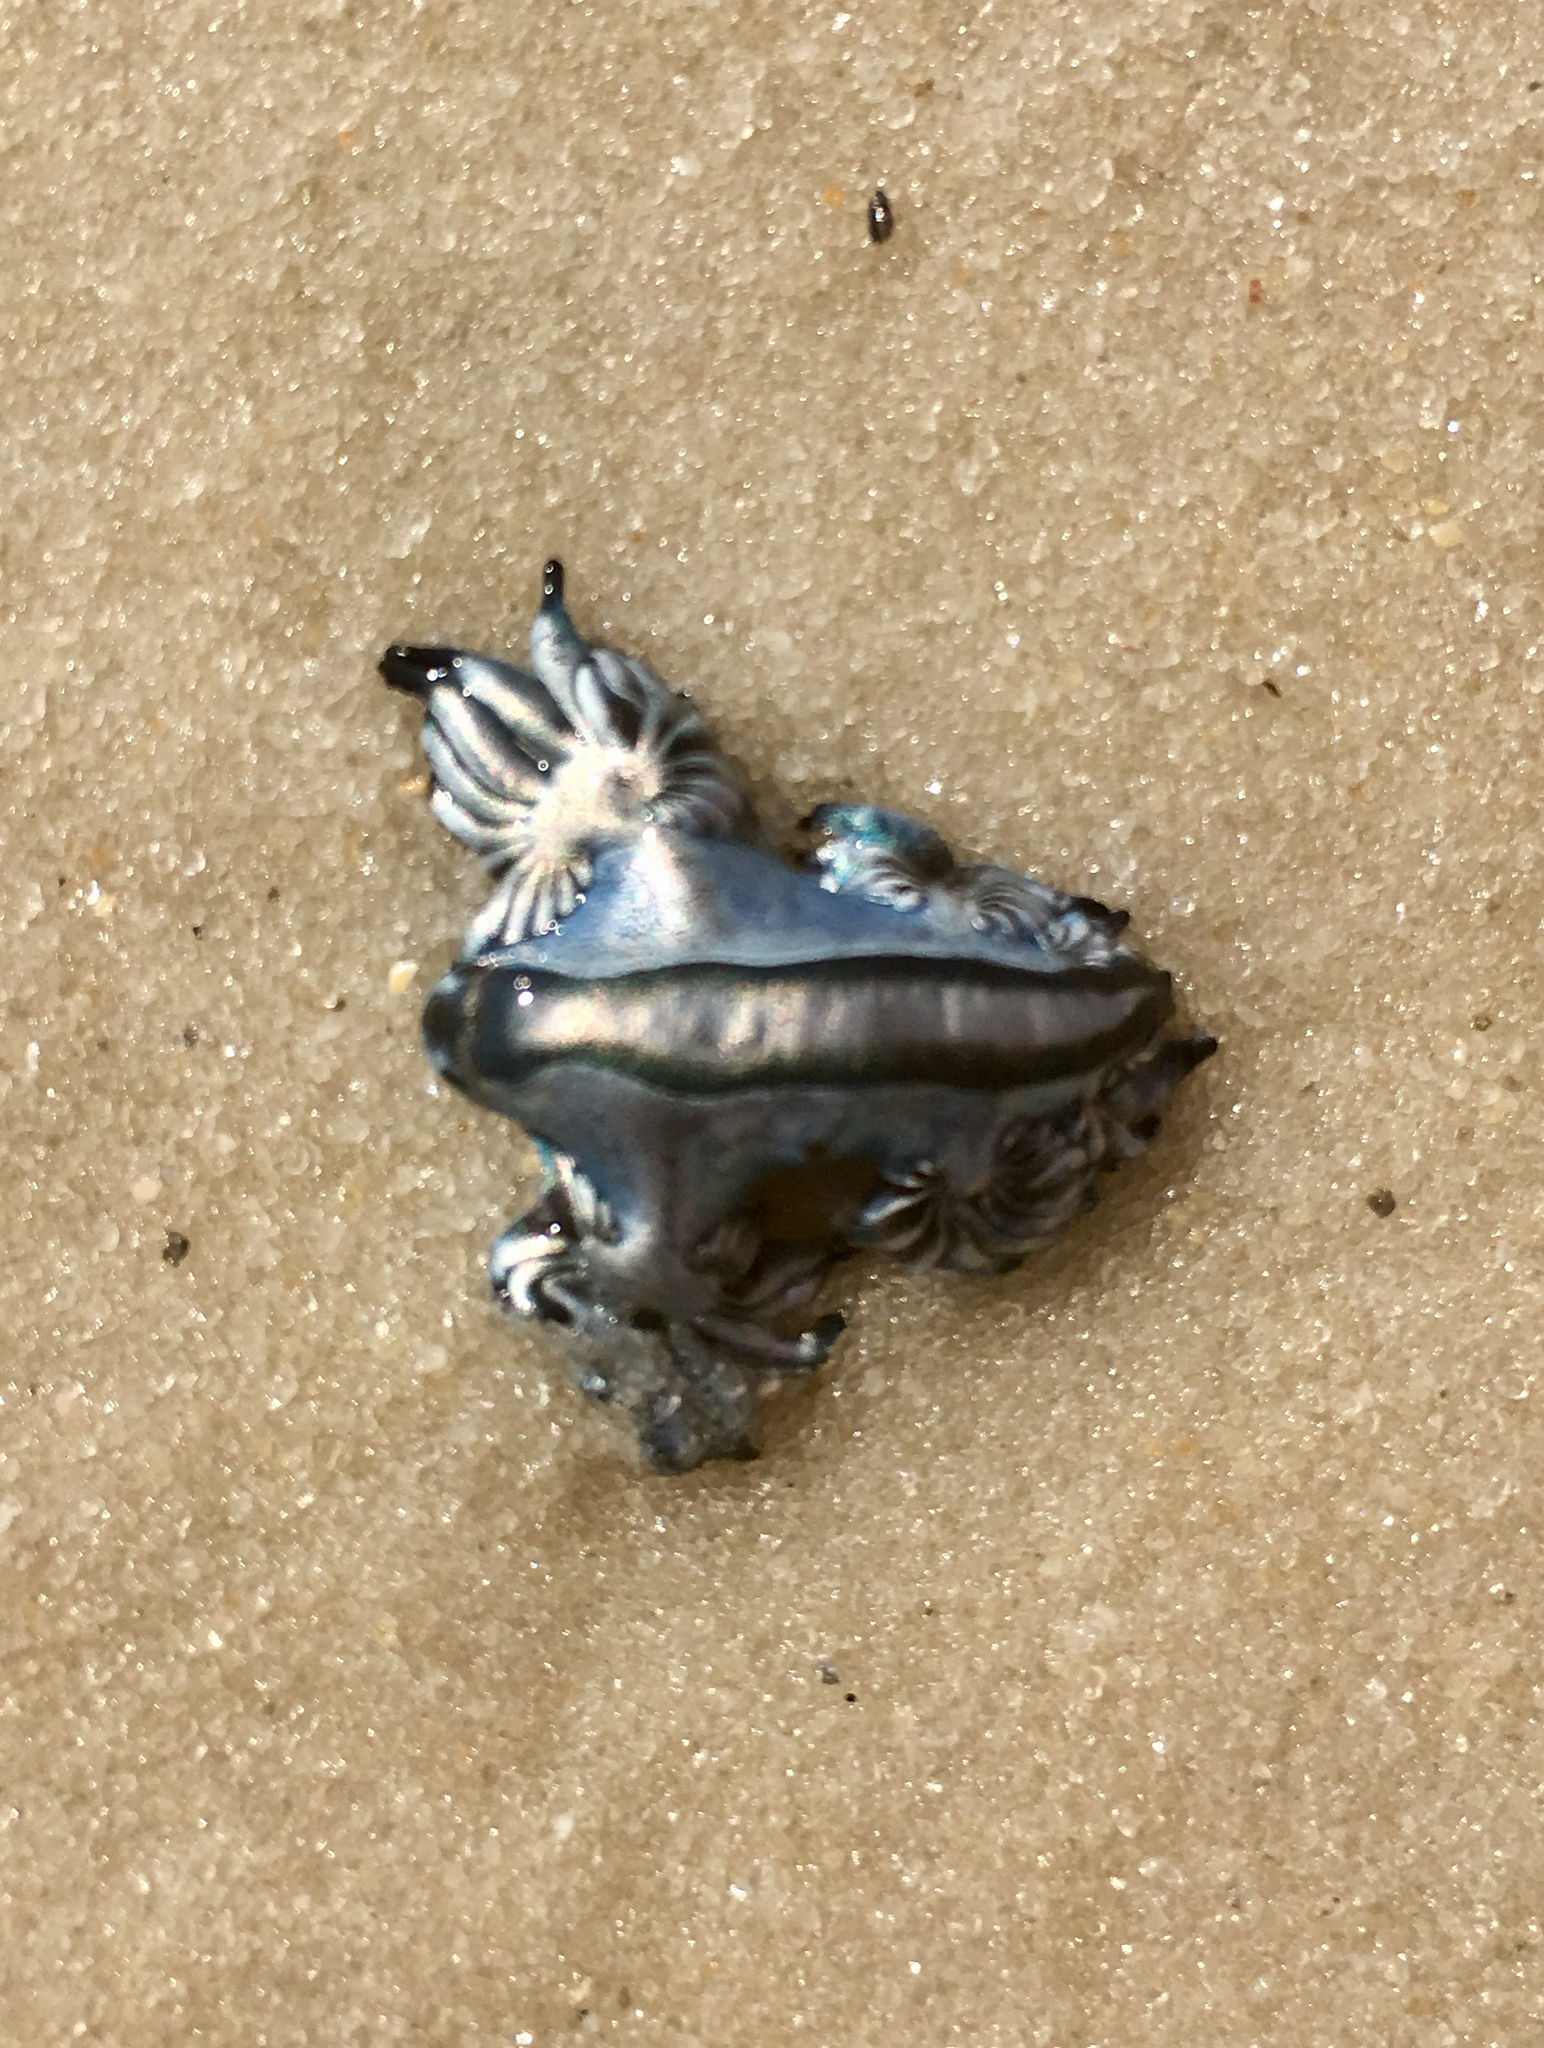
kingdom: Animalia
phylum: Mollusca
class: Gastropoda
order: Nudibranchia
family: Glaucidae
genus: Glaucus
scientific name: Glaucus atlanticus
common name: Purple ocean slug
